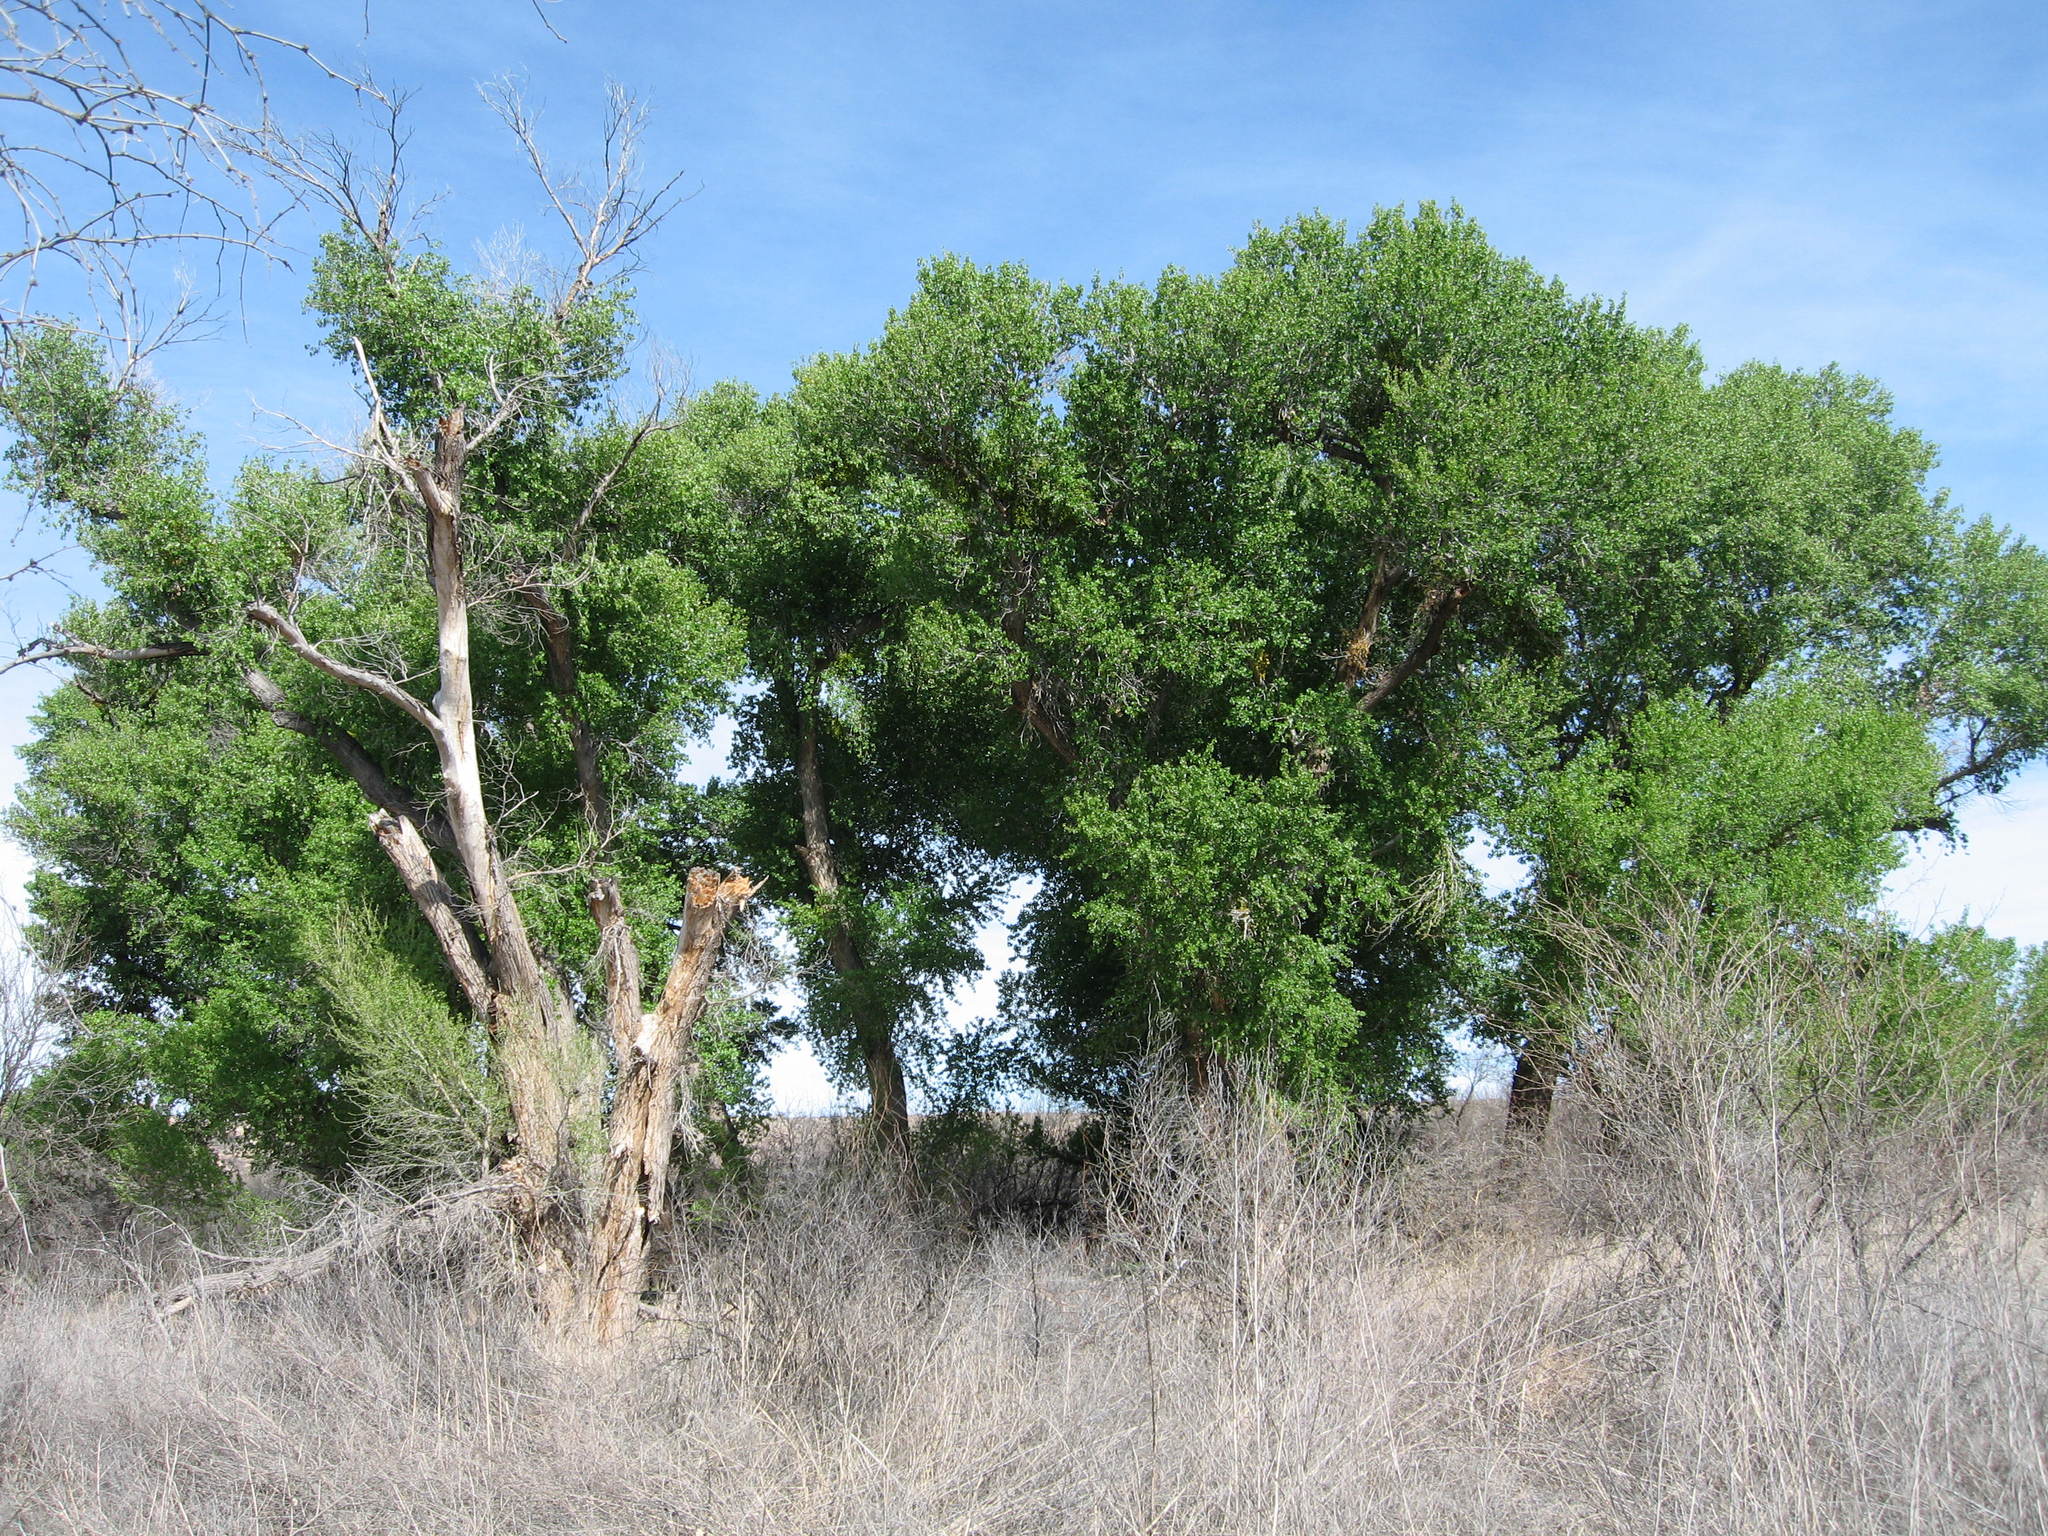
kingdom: Plantae
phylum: Tracheophyta
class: Magnoliopsida
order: Malpighiales
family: Salicaceae
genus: Populus
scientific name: Populus fremontii
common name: Fremont's cottonwood
